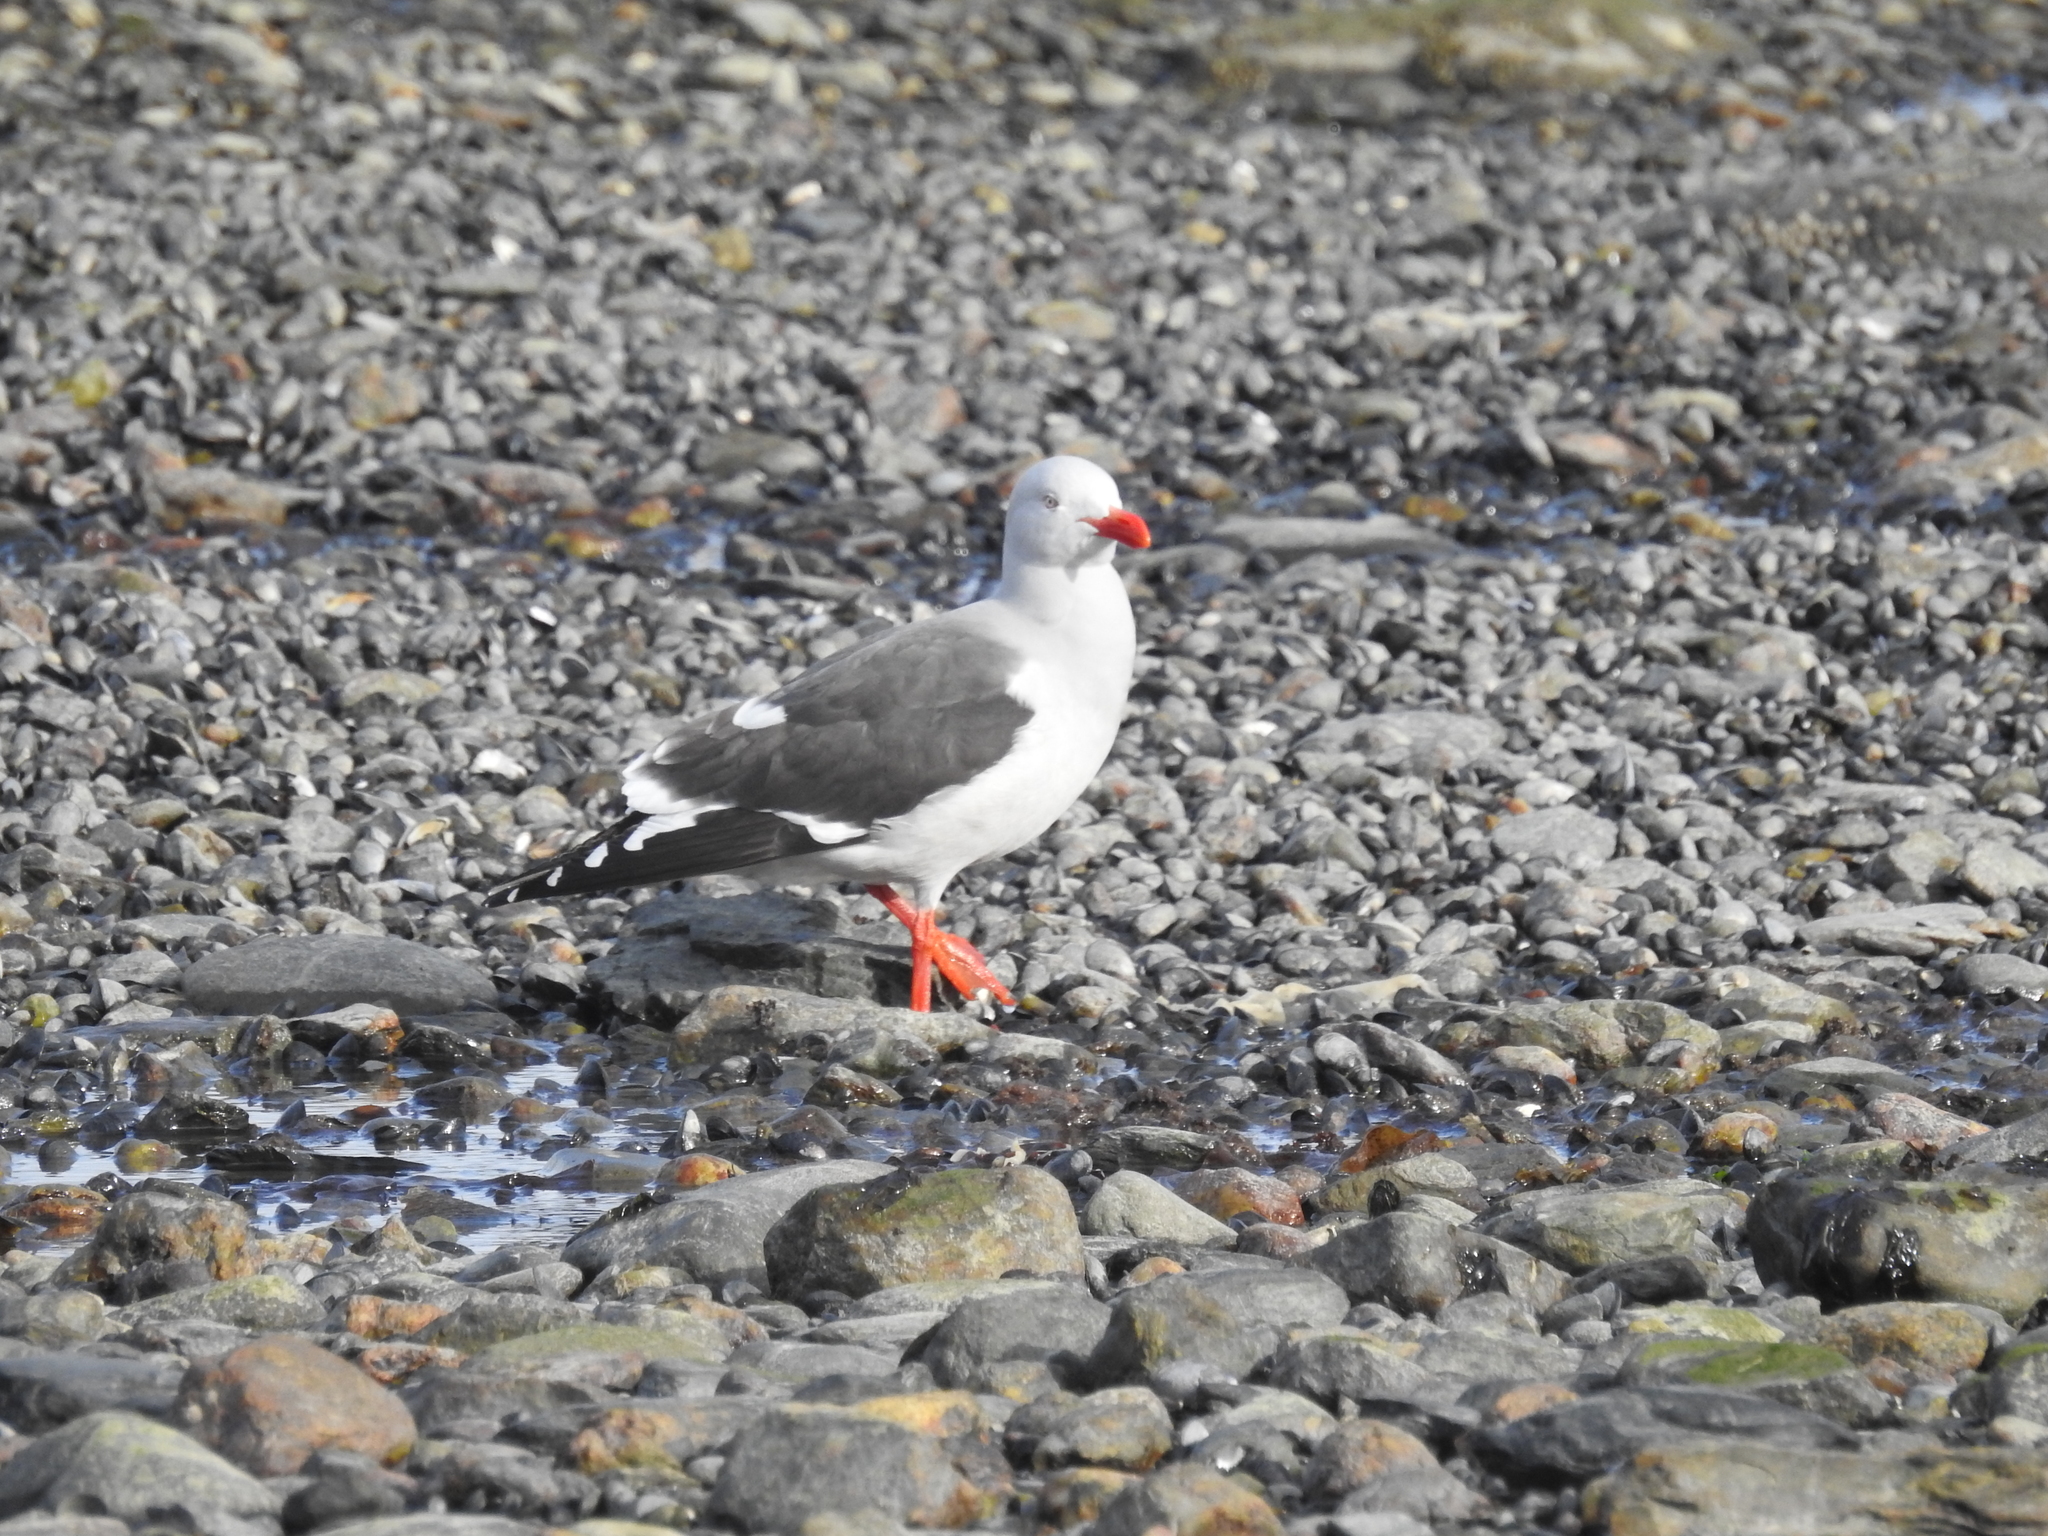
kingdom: Animalia
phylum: Chordata
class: Aves
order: Charadriiformes
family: Laridae
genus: Leucophaeus
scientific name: Leucophaeus scoresbii
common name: Dolphin gull
